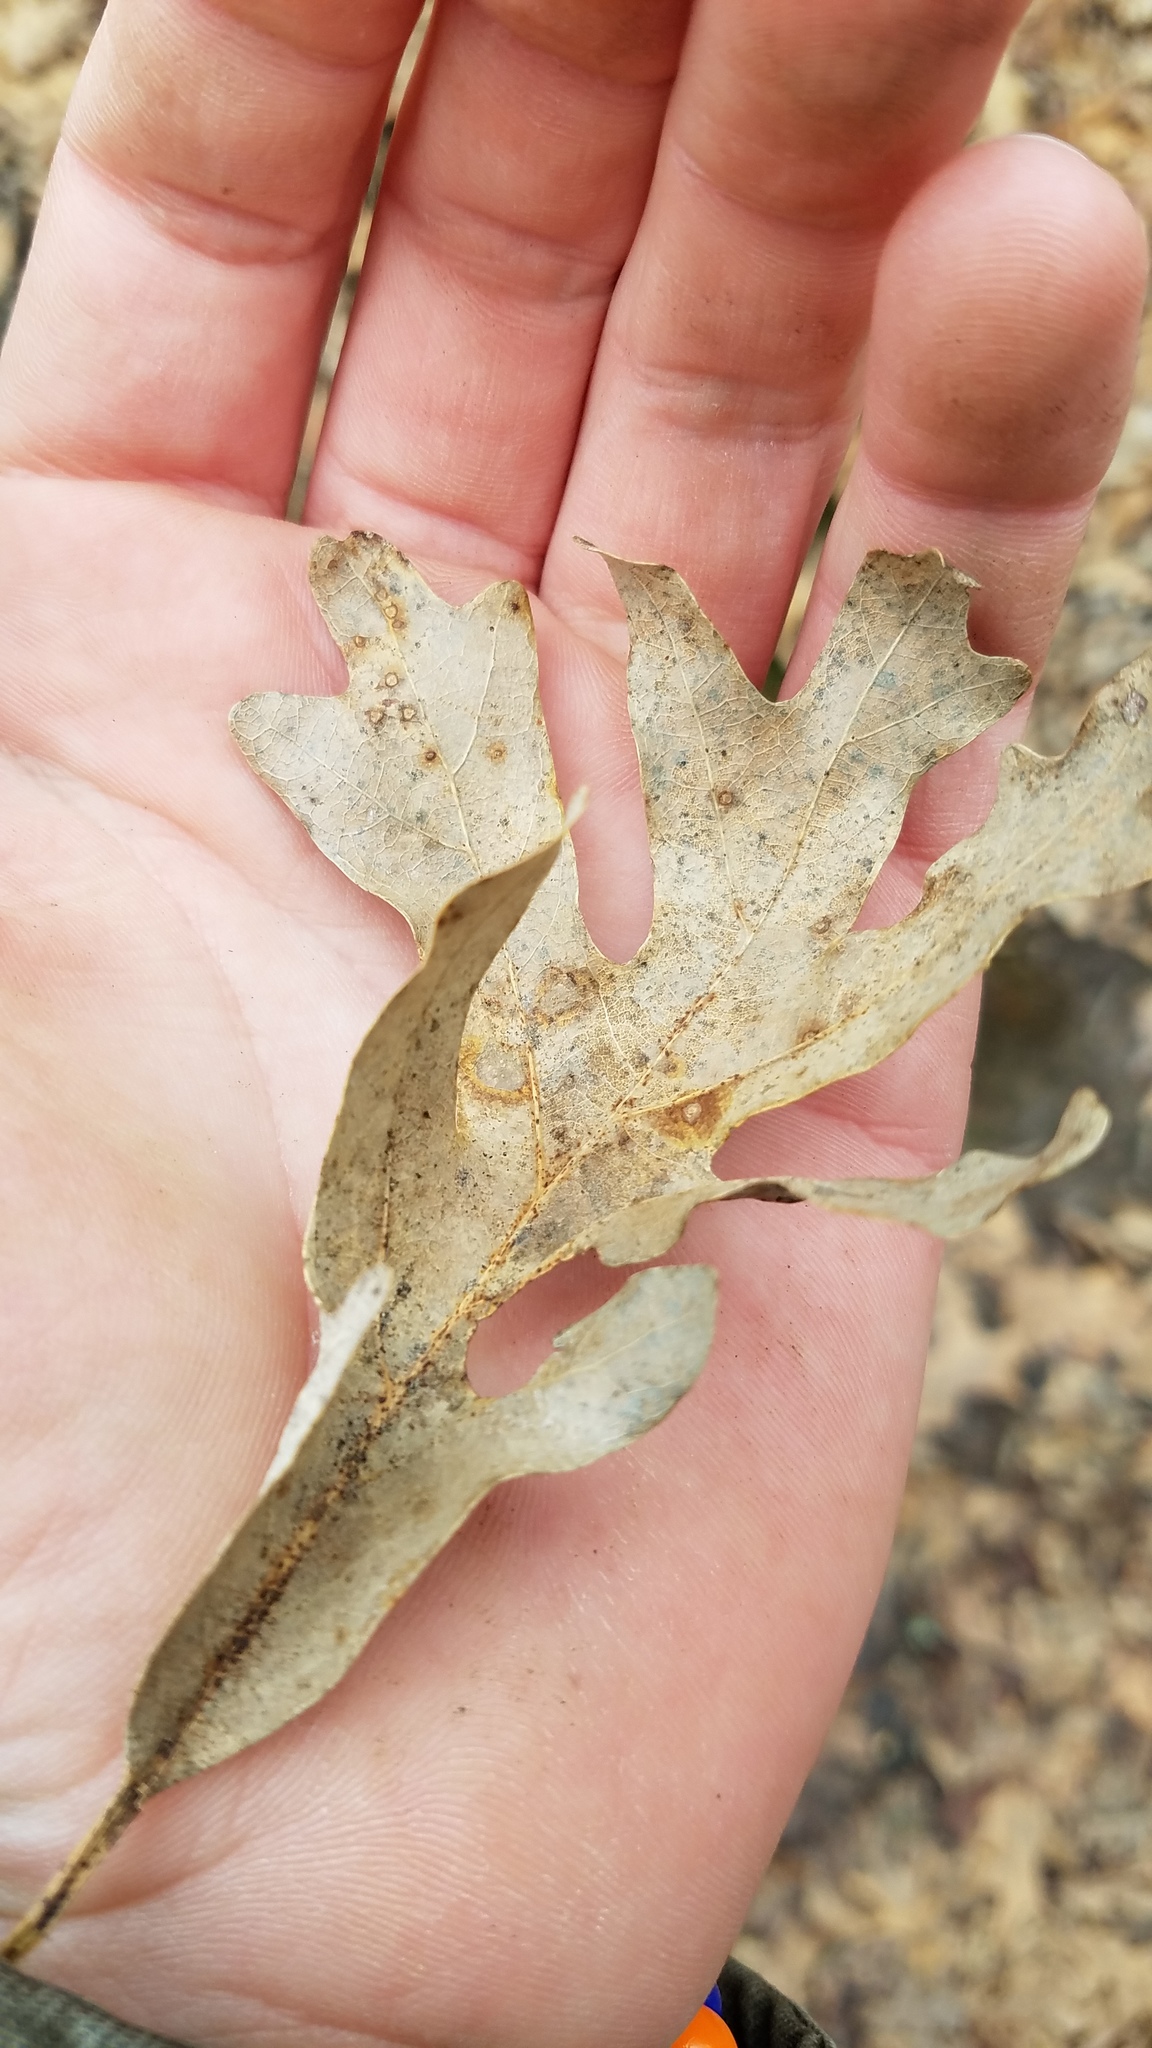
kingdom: Animalia
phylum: Arthropoda
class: Insecta
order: Hymenoptera
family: Cynipidae
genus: Neuroterus
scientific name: Neuroterus
